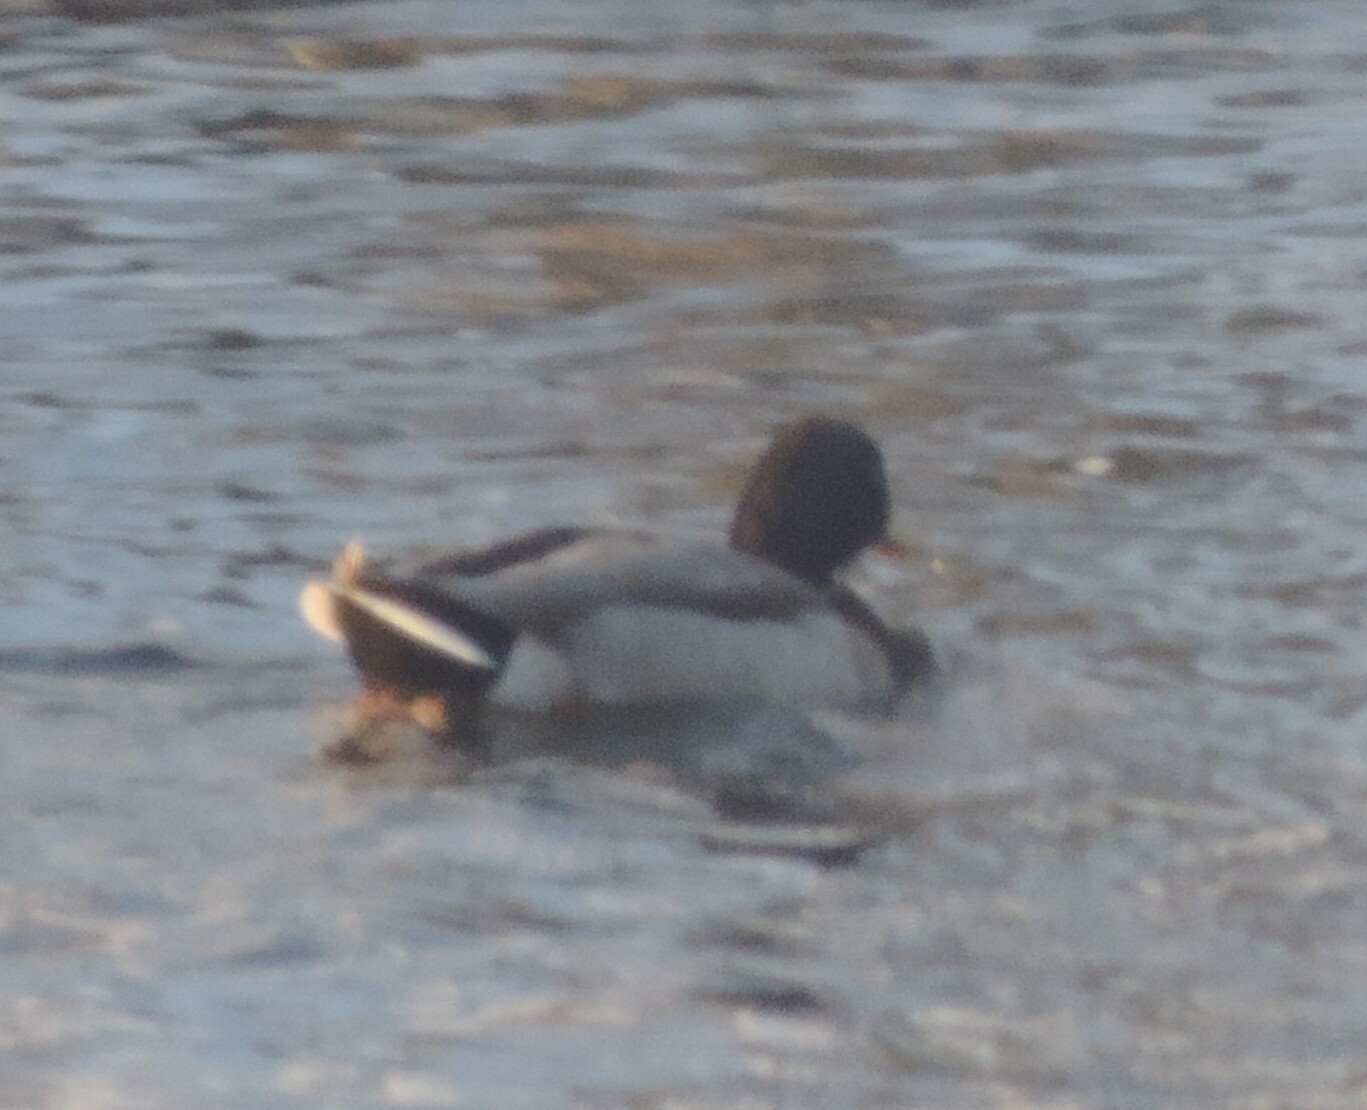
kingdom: Animalia
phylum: Chordata
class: Aves
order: Anseriformes
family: Anatidae
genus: Anas
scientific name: Anas platyrhynchos
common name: Mallard
